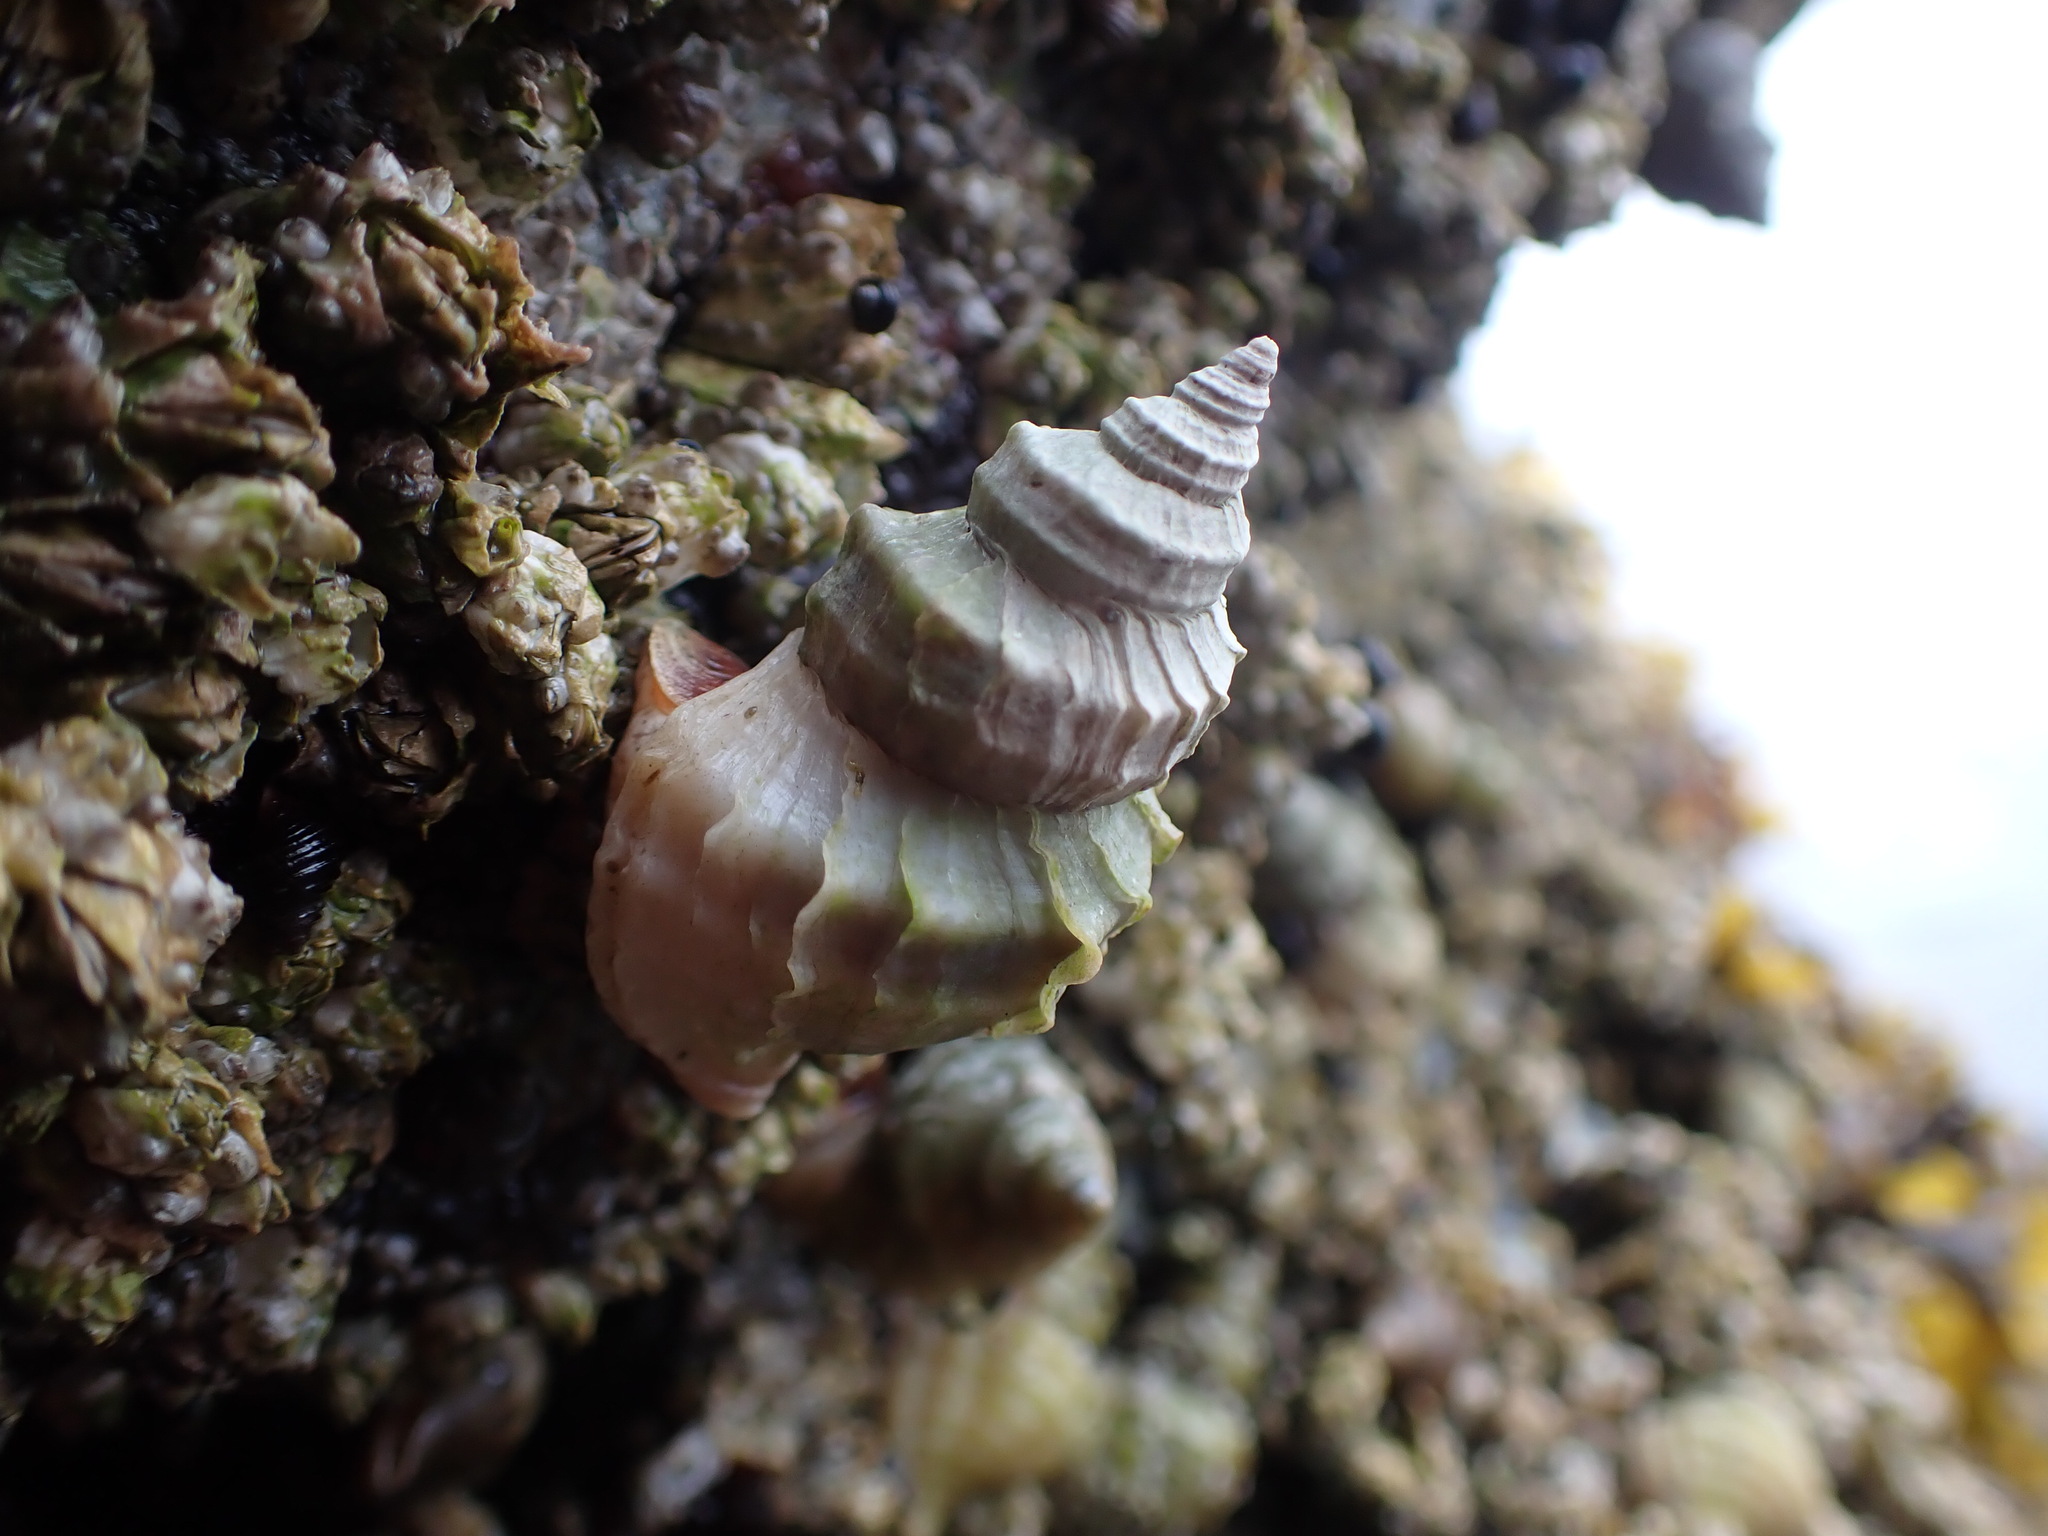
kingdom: Animalia
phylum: Mollusca
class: Gastropoda
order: Neogastropoda
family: Muricidae
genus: Nucella
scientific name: Nucella lamellosa
